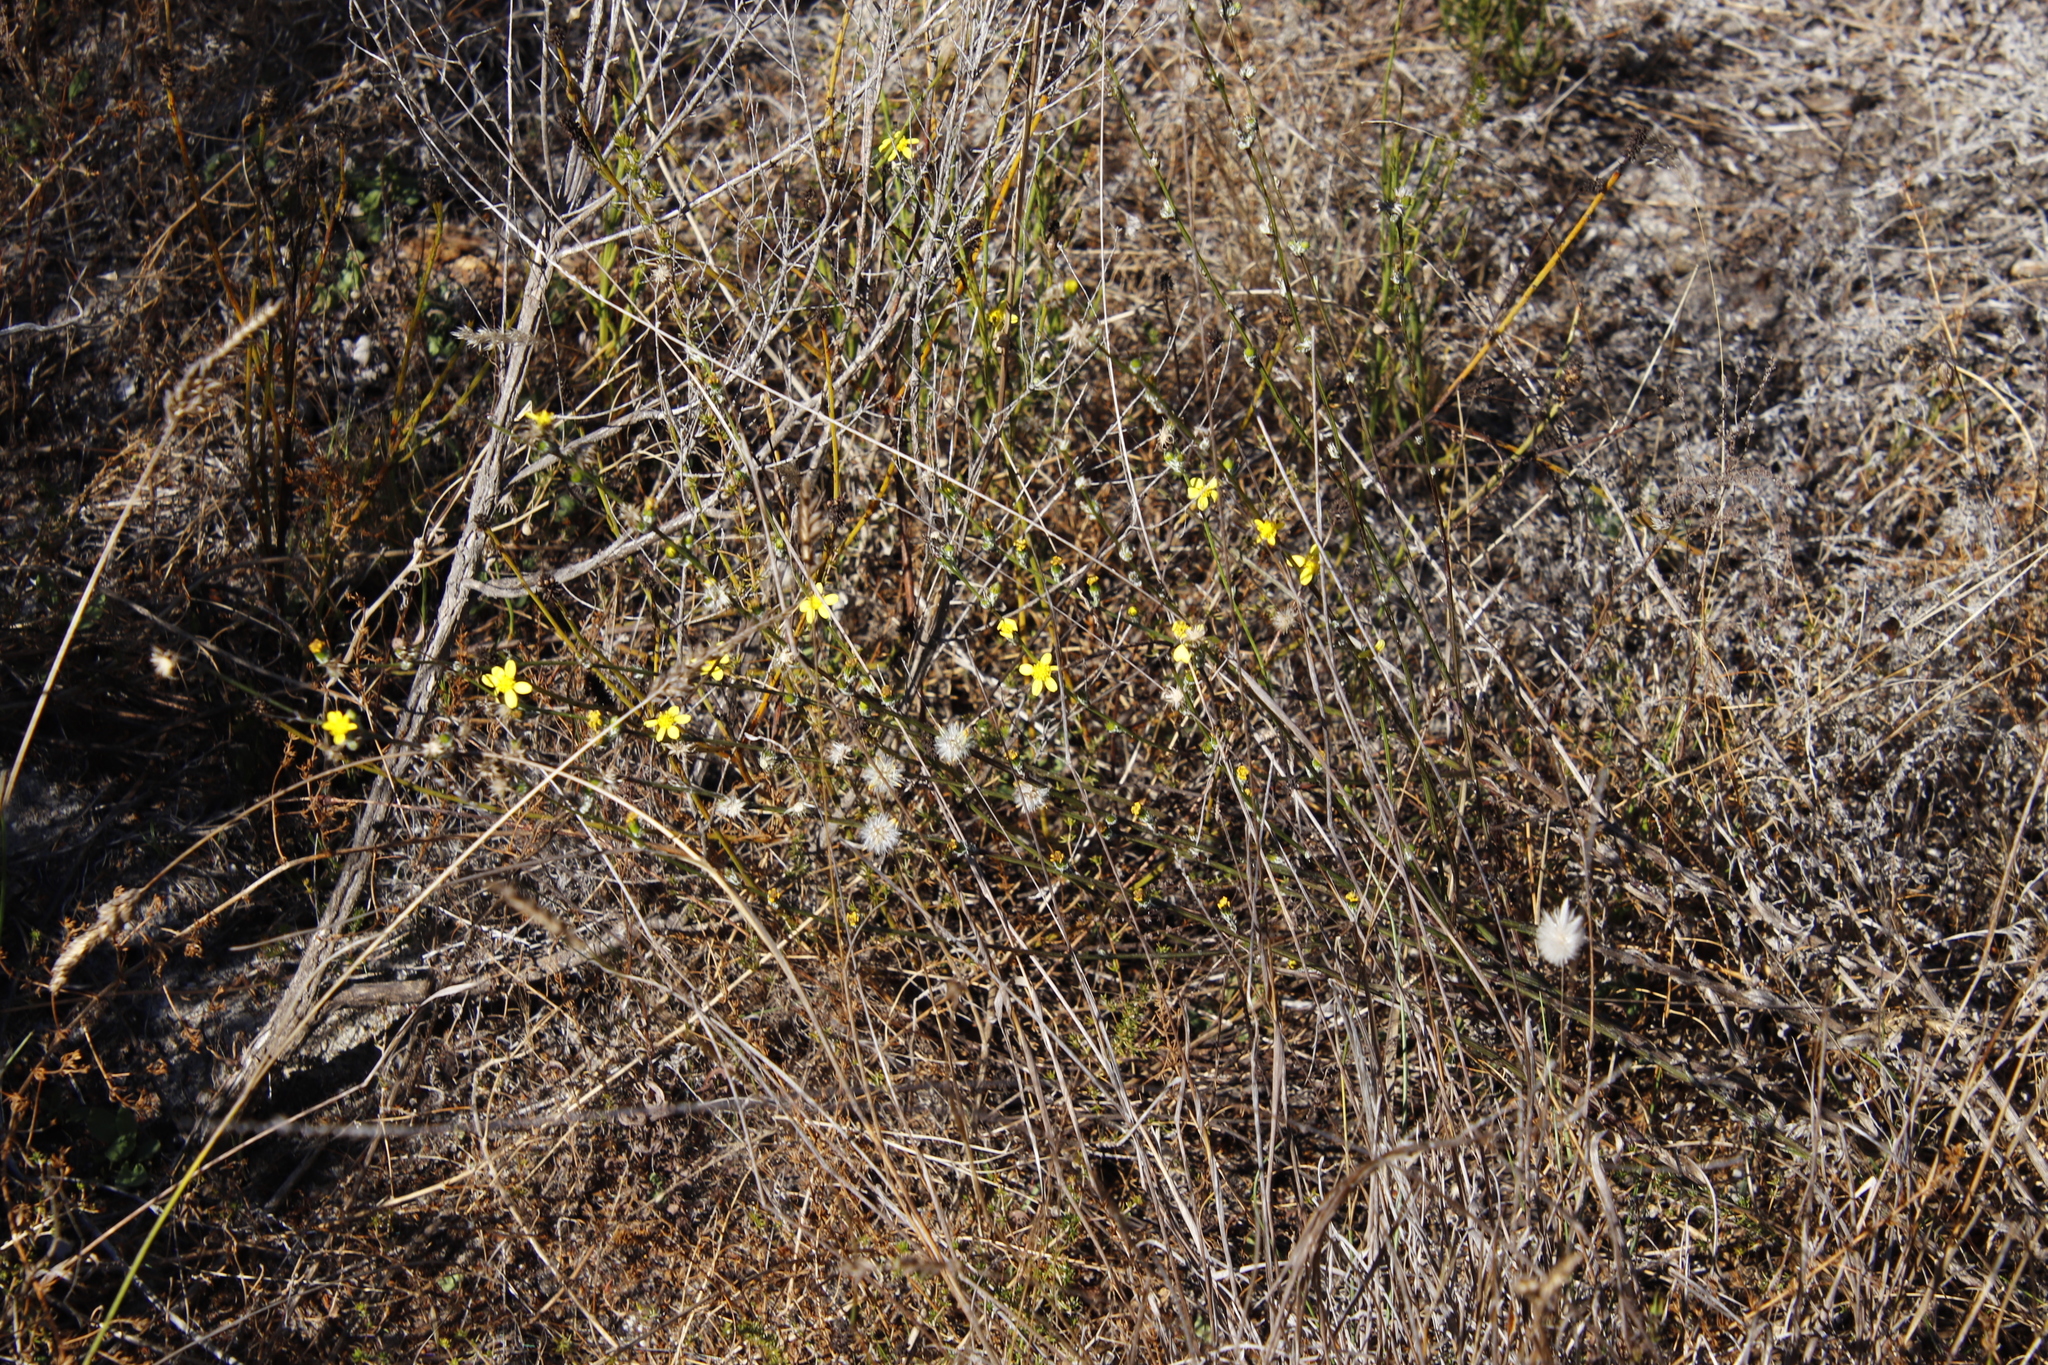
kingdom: Plantae
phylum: Tracheophyta
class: Magnoliopsida
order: Asterales
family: Asteraceae
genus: Senecio
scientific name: Senecio burchellii
